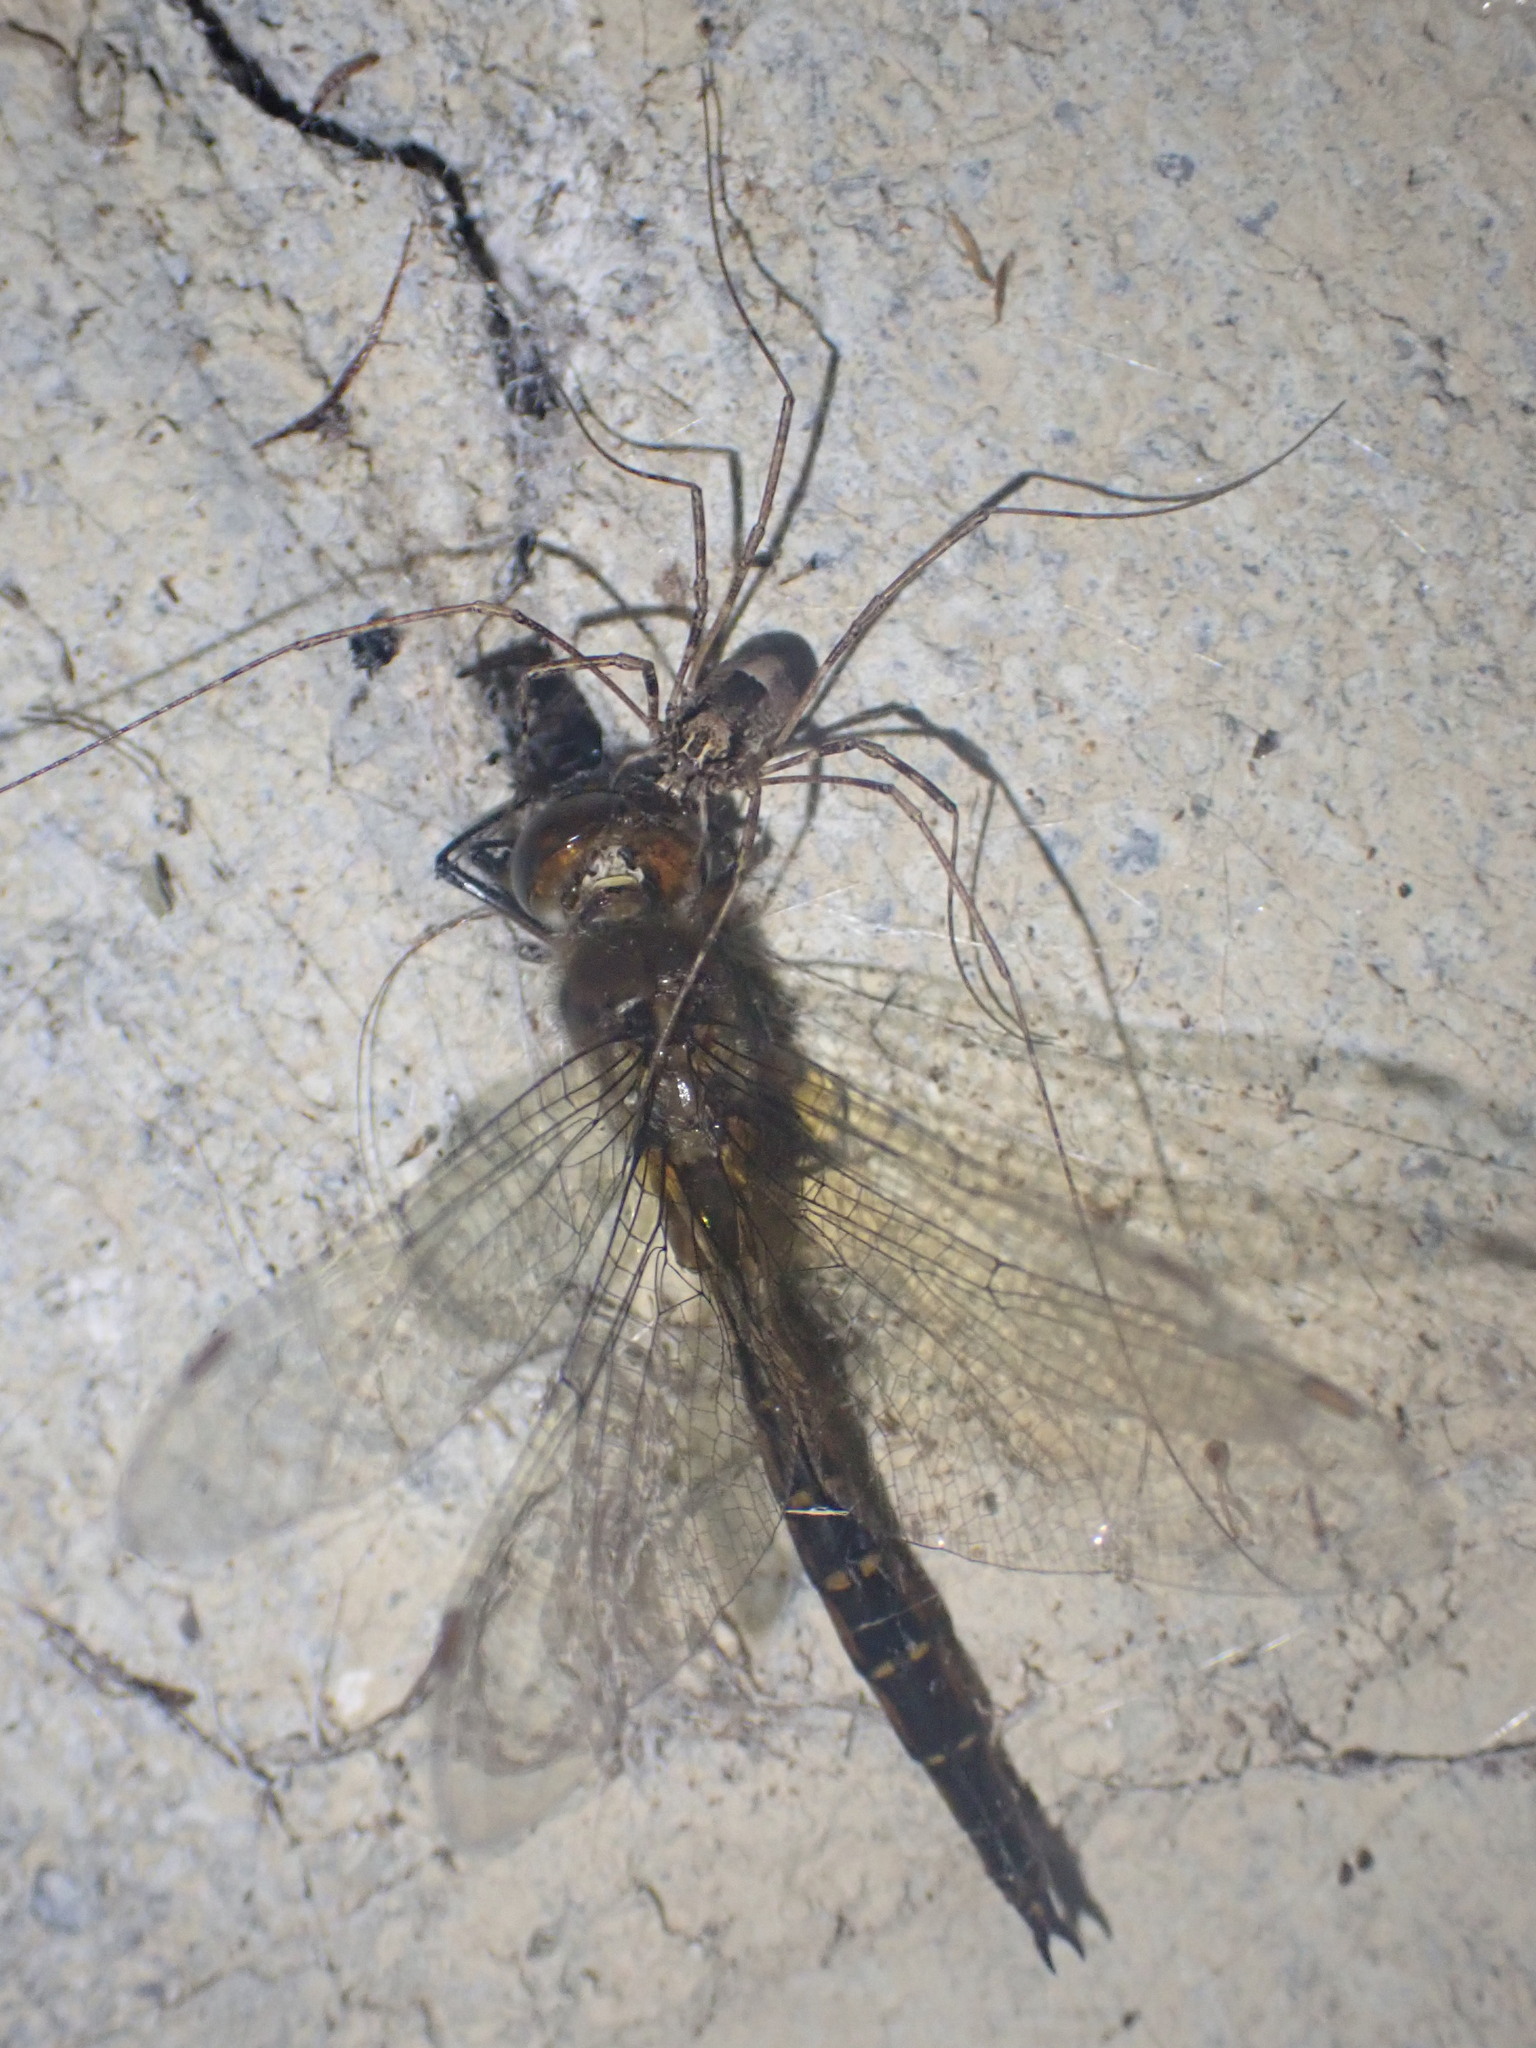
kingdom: Animalia
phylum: Arthropoda
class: Insecta
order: Odonata
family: Corduliidae
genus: Procordulia
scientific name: Procordulia smithii
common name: Ranger dragonfly
